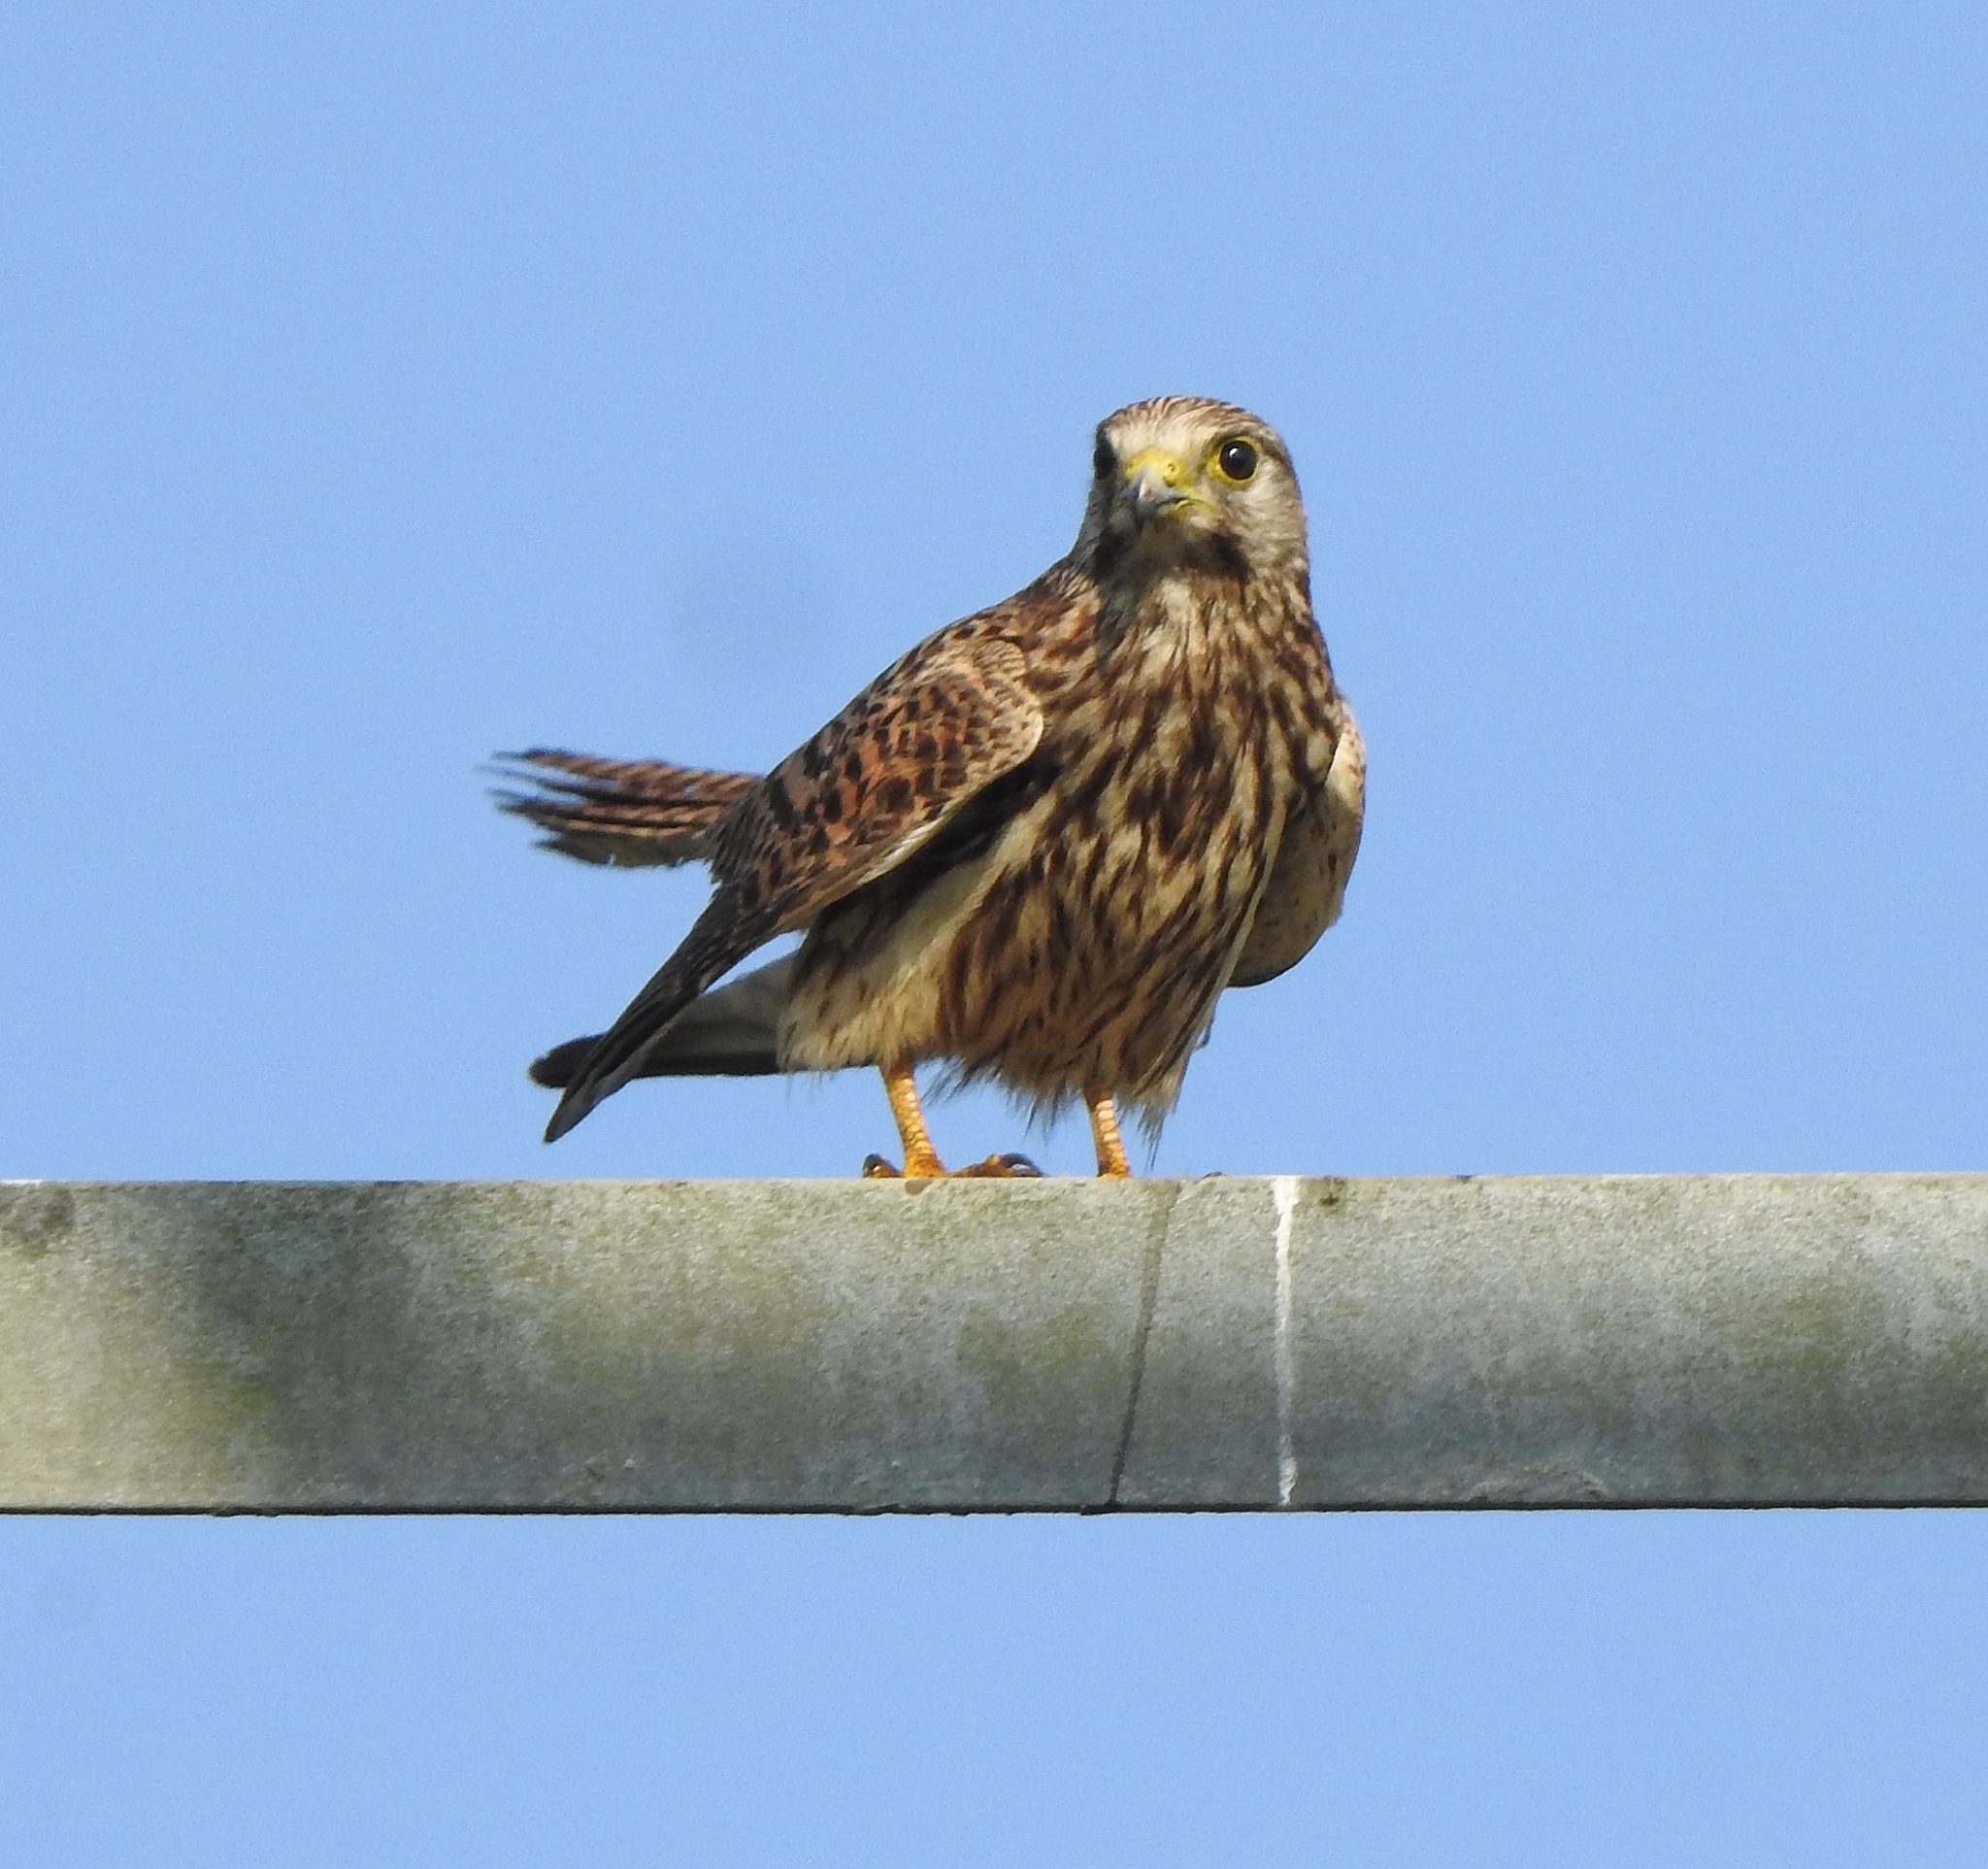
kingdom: Animalia
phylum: Chordata
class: Aves
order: Falconiformes
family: Falconidae
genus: Falco
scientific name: Falco tinnunculus
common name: Common kestrel
